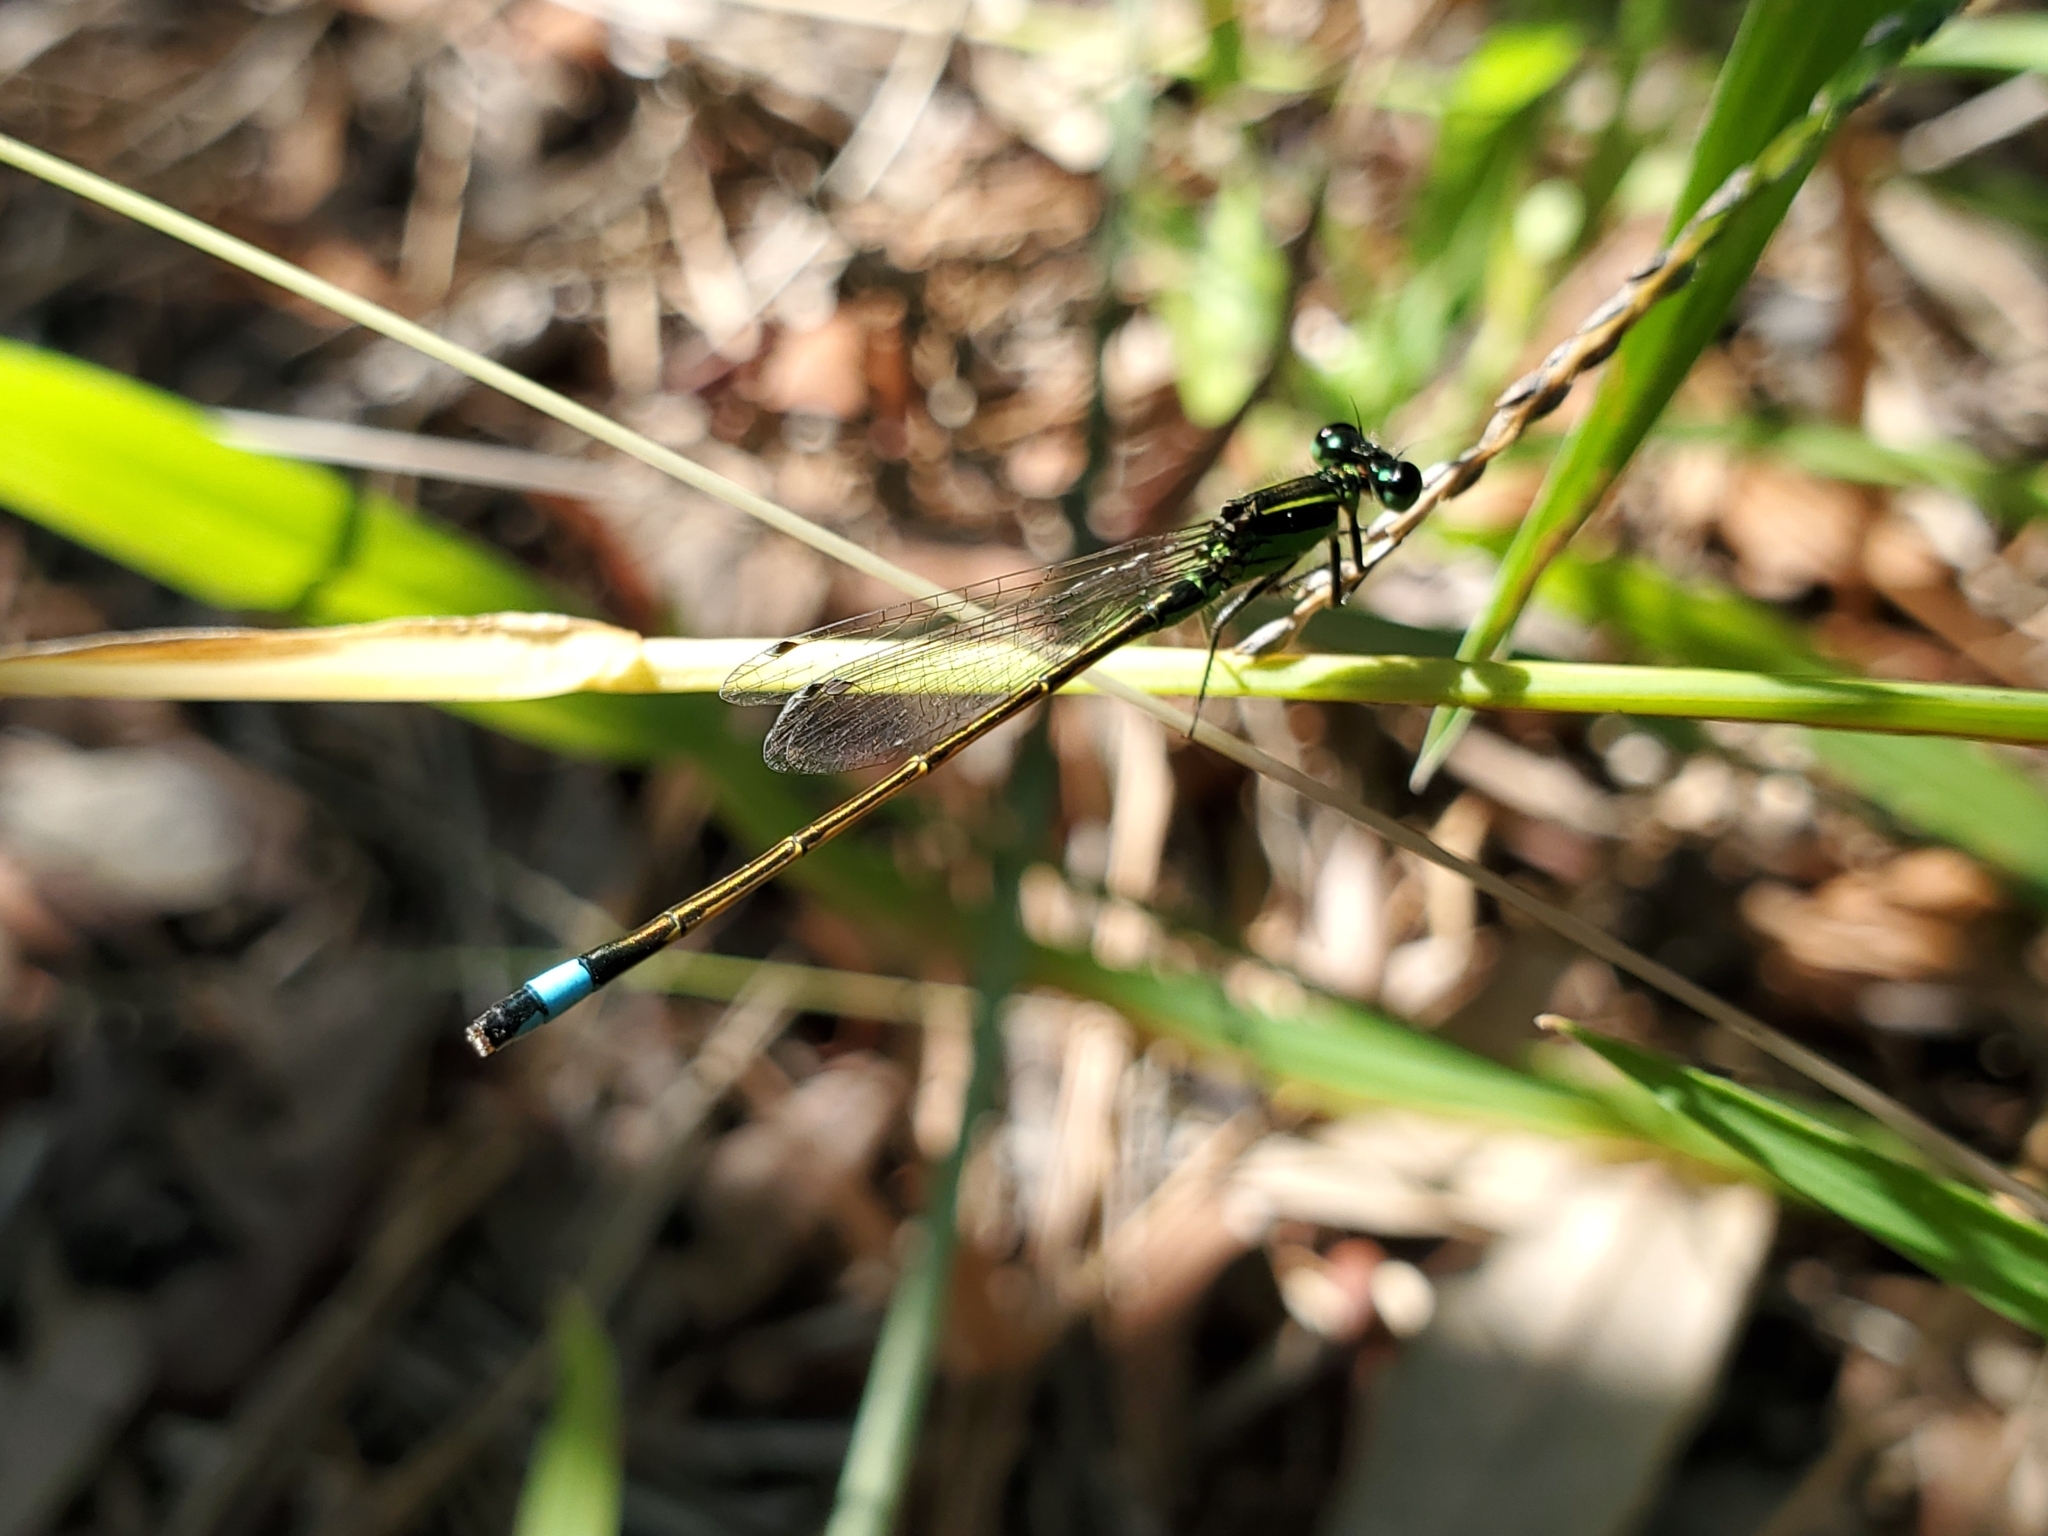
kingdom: Animalia
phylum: Arthropoda
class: Insecta
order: Odonata
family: Coenagrionidae
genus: Ischnura
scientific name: Ischnura ramburii
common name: Rambur's forktail
